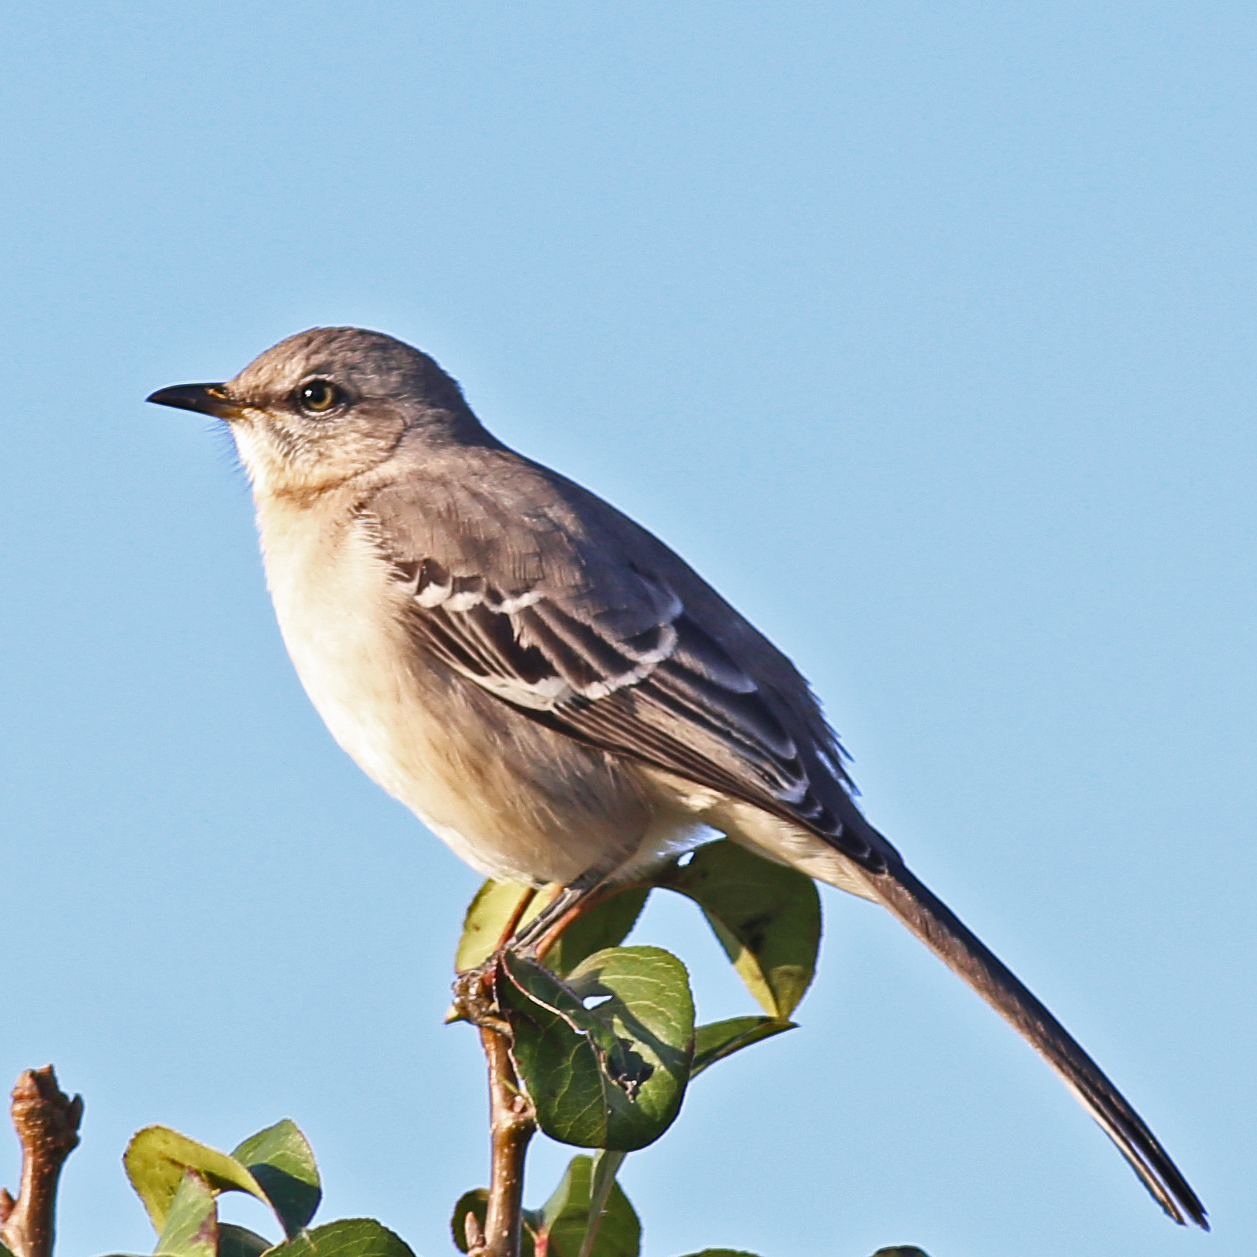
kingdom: Animalia
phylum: Chordata
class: Aves
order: Passeriformes
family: Mimidae
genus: Mimus
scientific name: Mimus polyglottos
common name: Northern mockingbird
